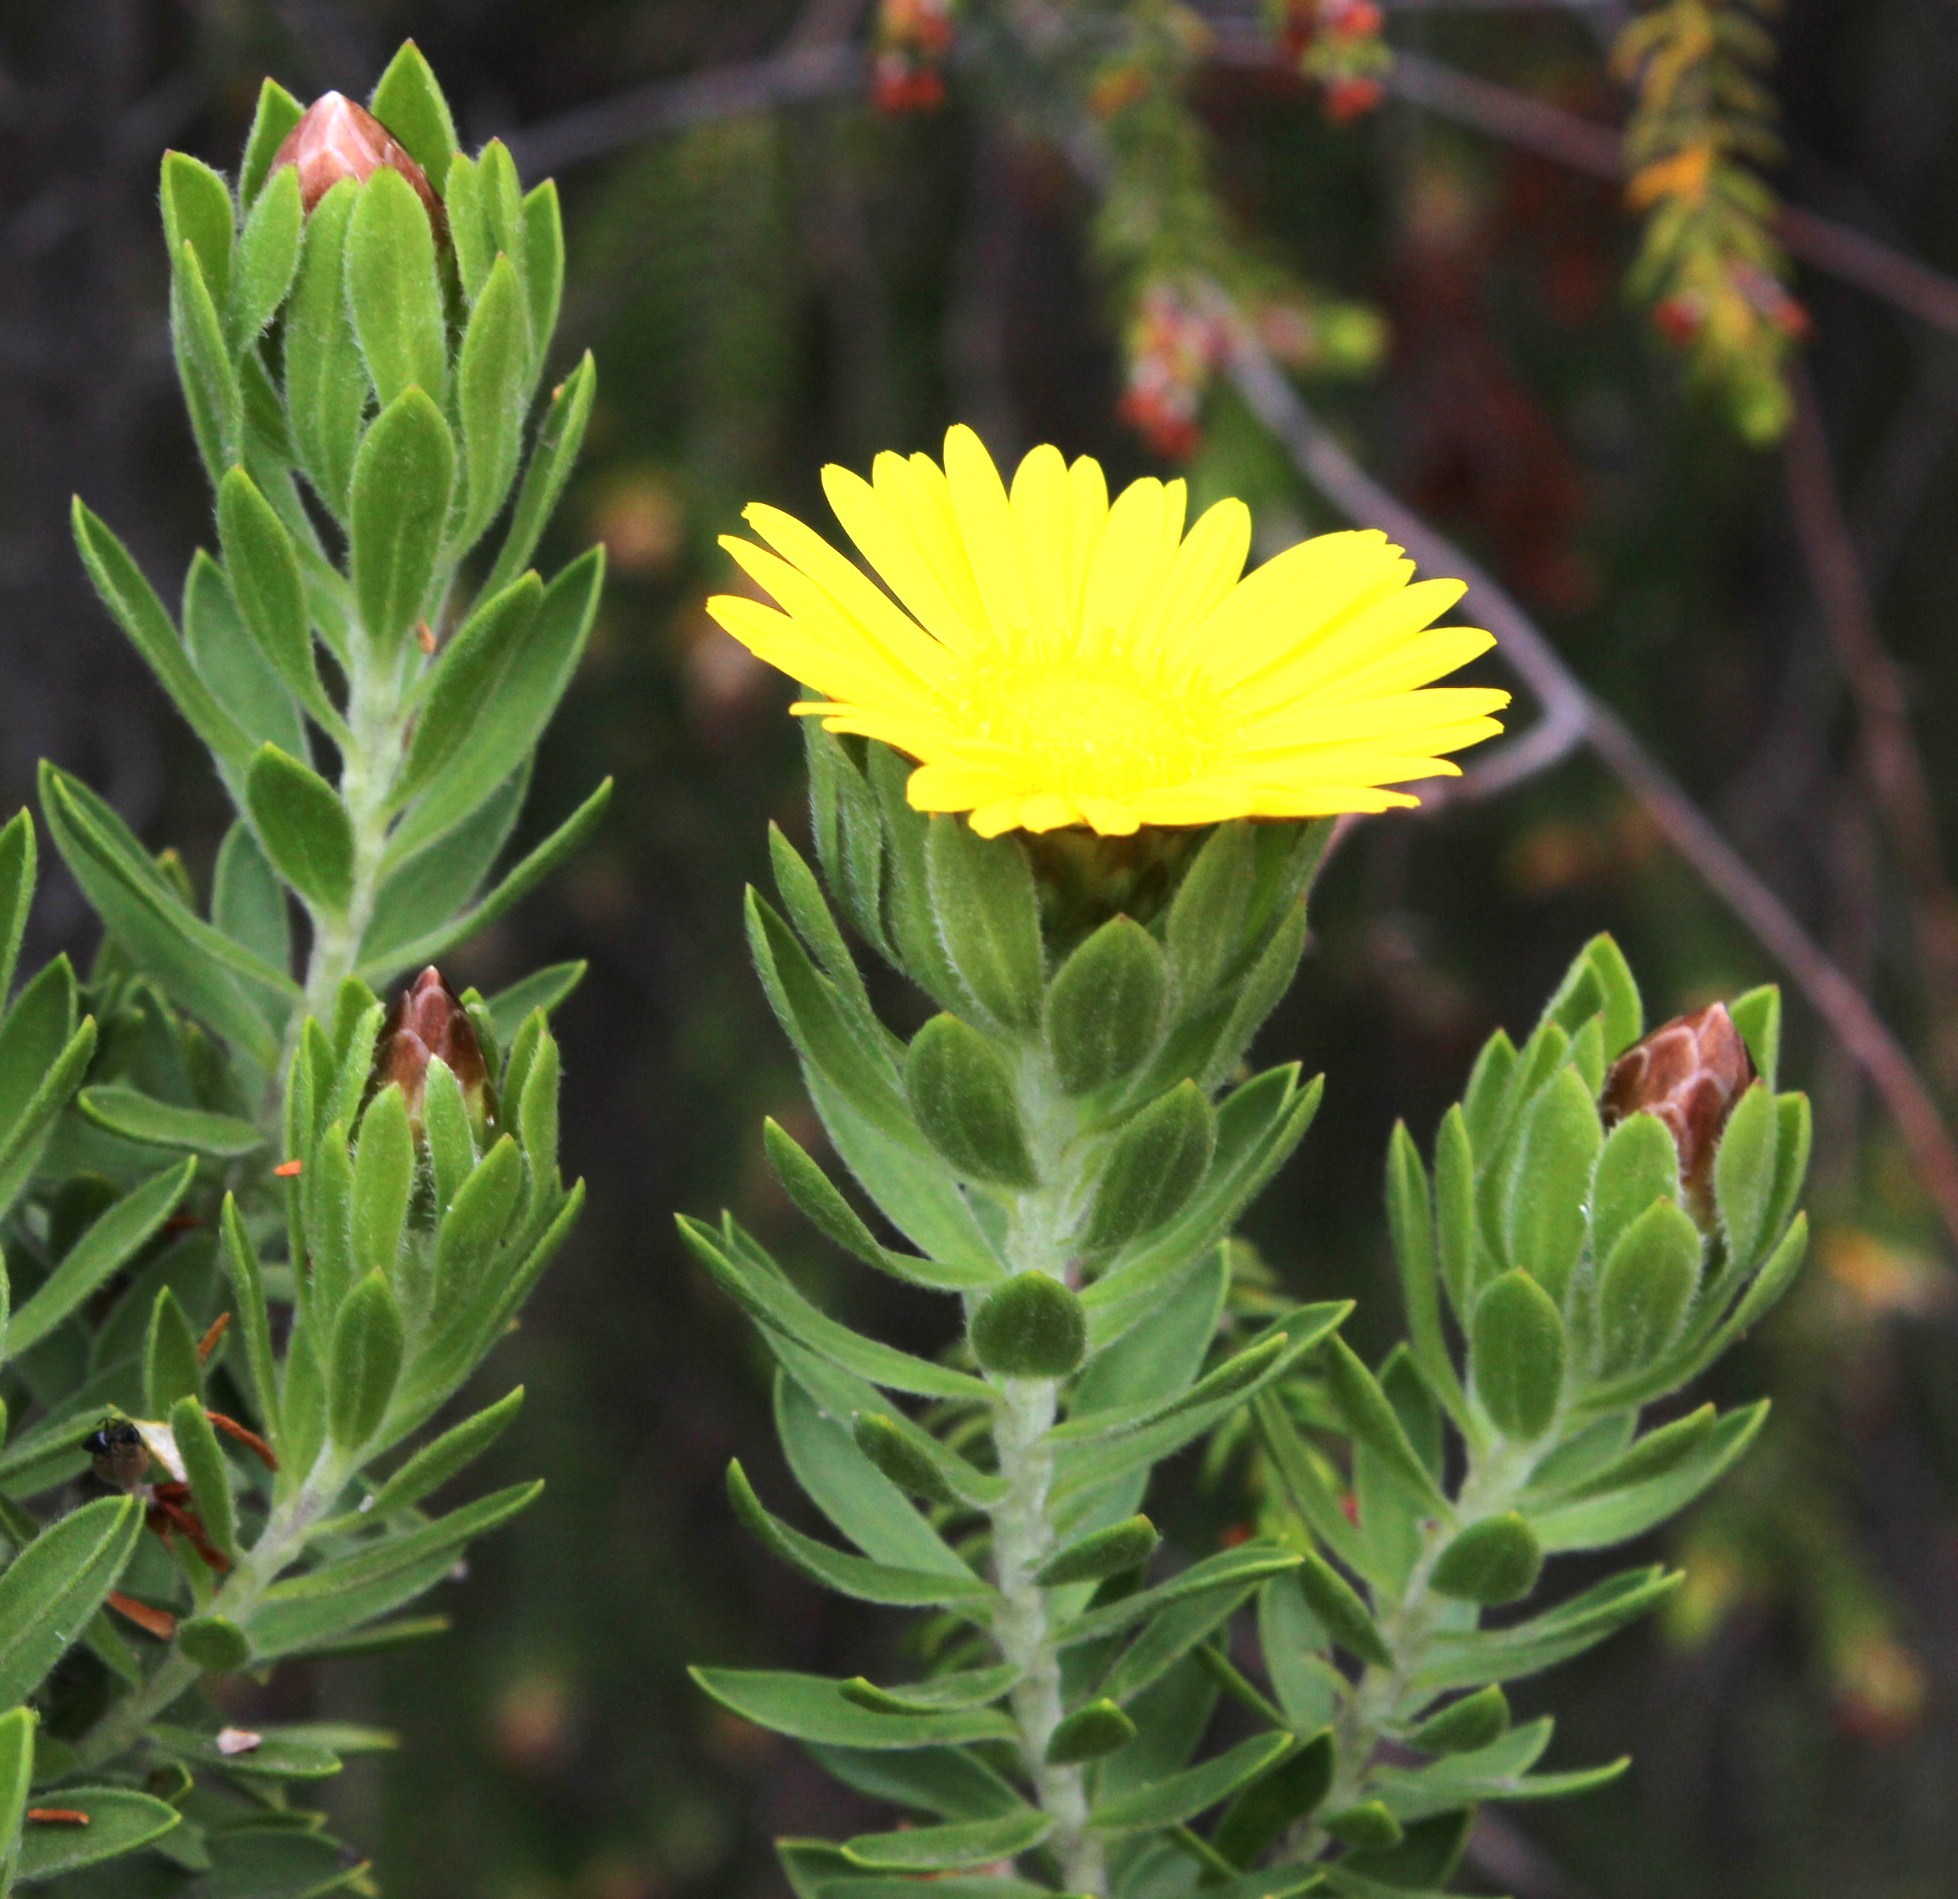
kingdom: Plantae
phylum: Tracheophyta
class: Magnoliopsida
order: Asterales
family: Asteraceae
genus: Oedera
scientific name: Oedera calycina
